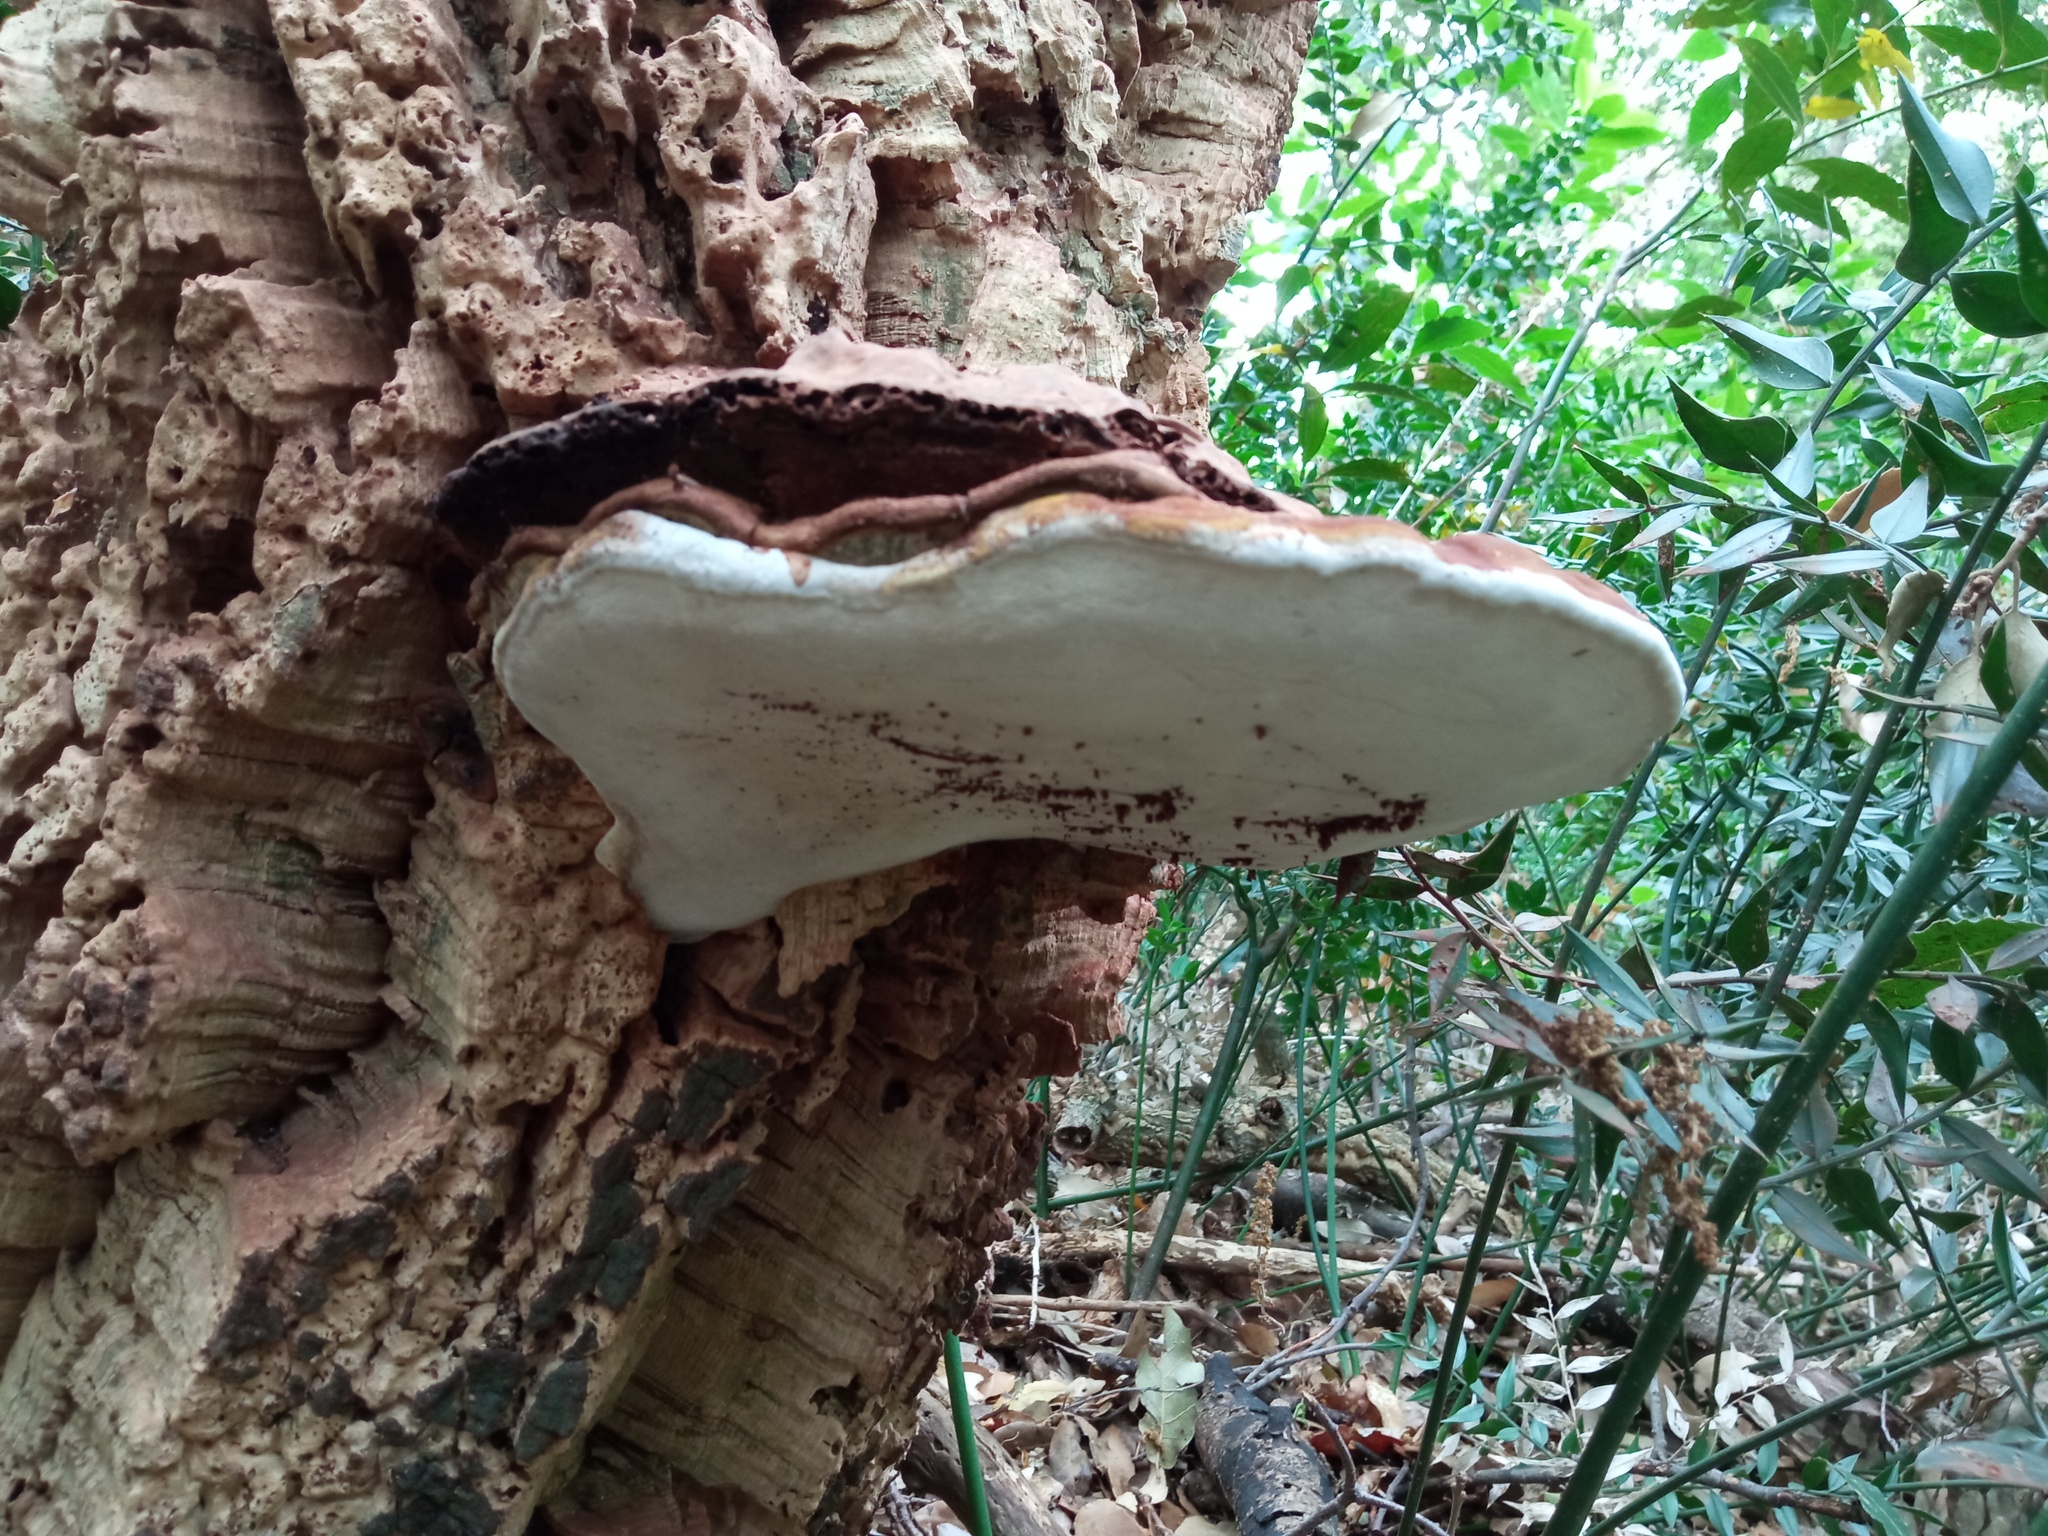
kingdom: Fungi
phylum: Basidiomycota
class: Agaricomycetes
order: Polyporales
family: Polyporaceae
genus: Ganoderma
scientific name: Ganoderma applanatum
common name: Artist's bracket
